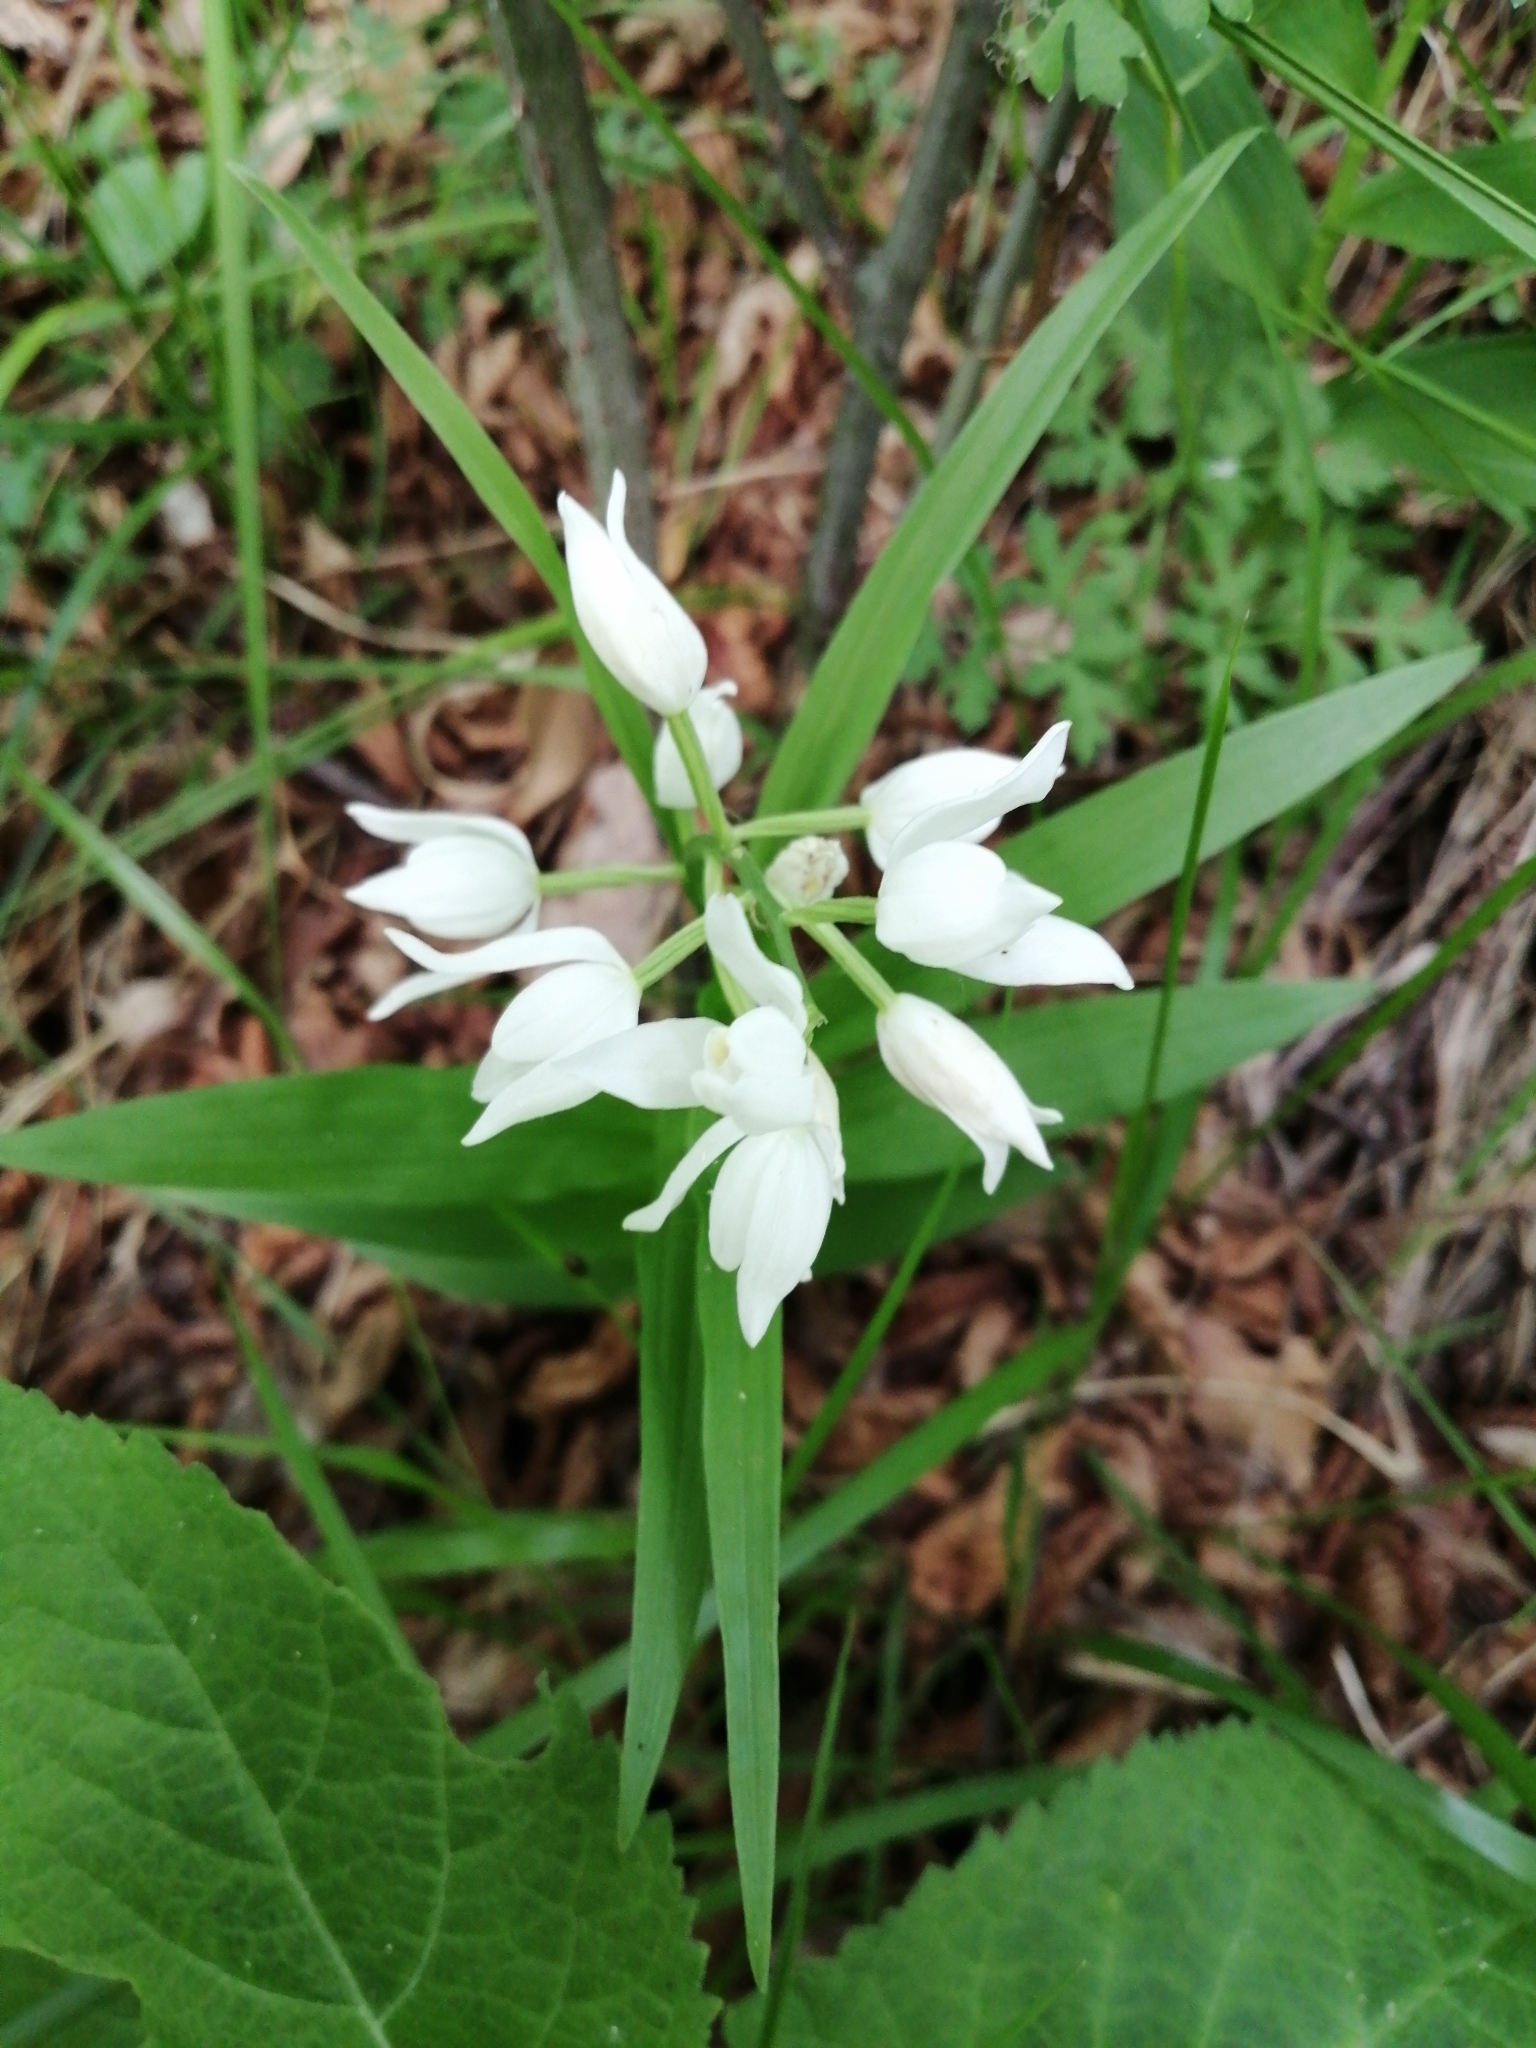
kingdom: Plantae
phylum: Tracheophyta
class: Liliopsida
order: Asparagales
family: Orchidaceae
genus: Cephalanthera
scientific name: Cephalanthera longifolia
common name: Narrow-leaved helleborine
